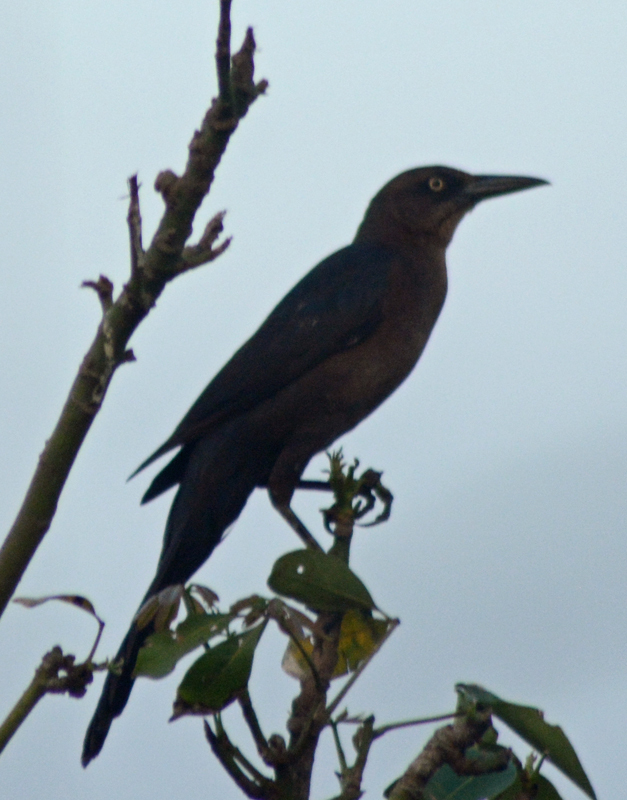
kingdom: Animalia
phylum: Chordata
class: Aves
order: Passeriformes
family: Icteridae
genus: Quiscalus
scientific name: Quiscalus mexicanus
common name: Great-tailed grackle
